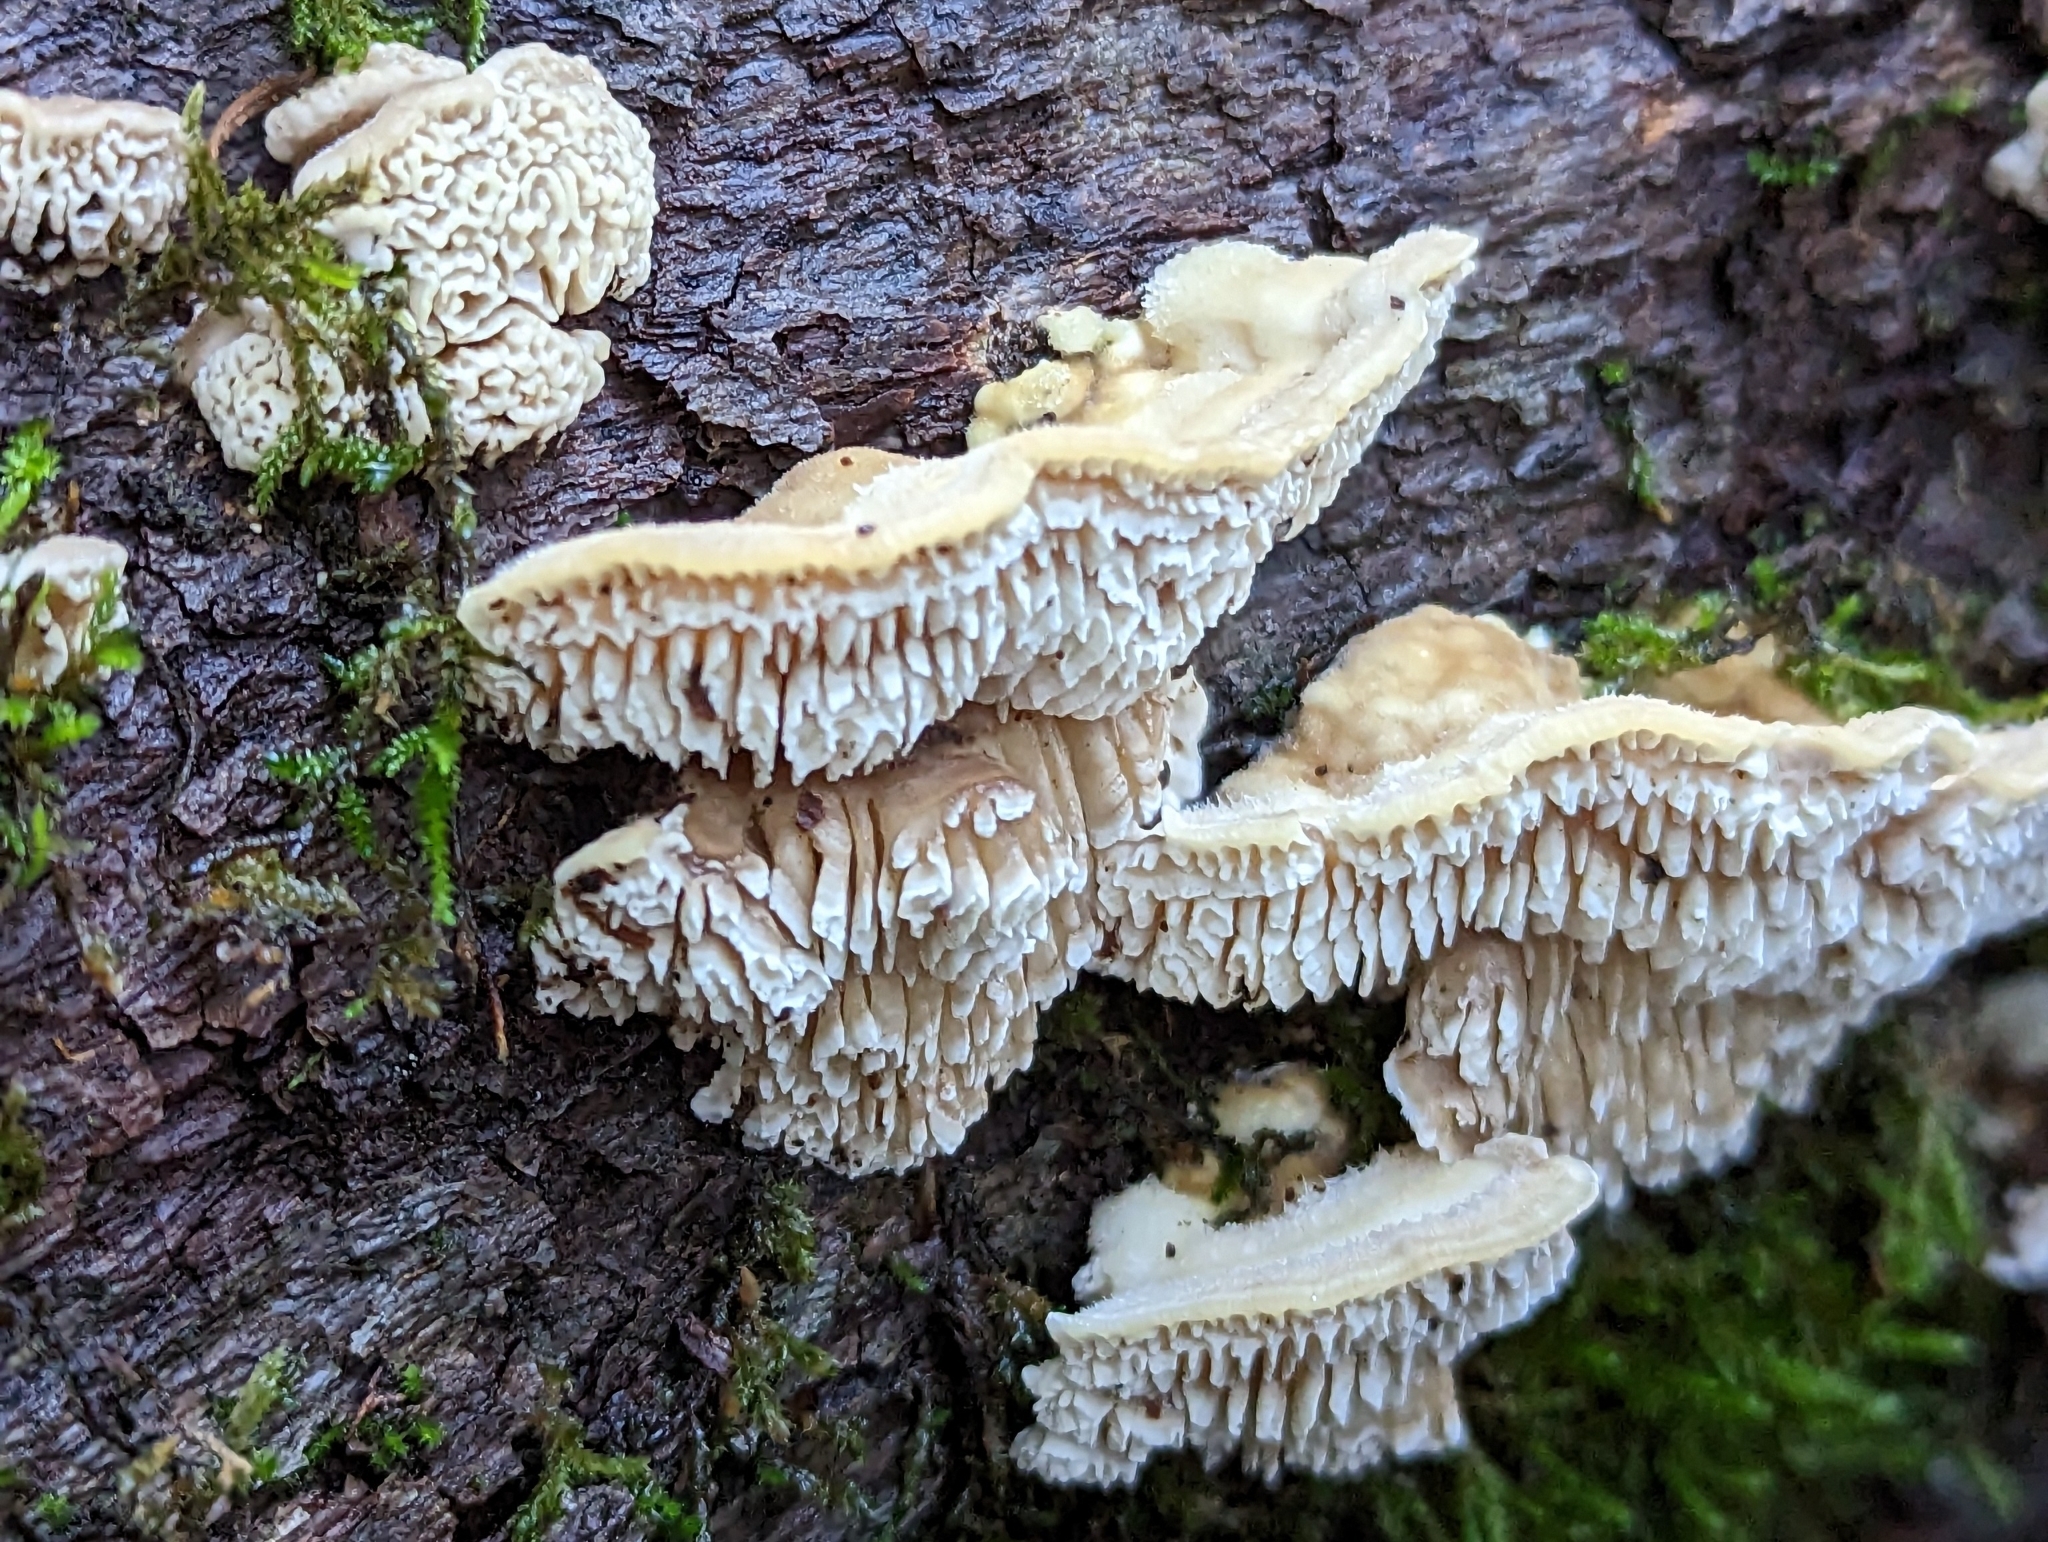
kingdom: Fungi
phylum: Basidiomycota
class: Agaricomycetes
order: Polyporales
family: Polyporaceae
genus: Lenzites
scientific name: Lenzites betulinus
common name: Birch mazegill
